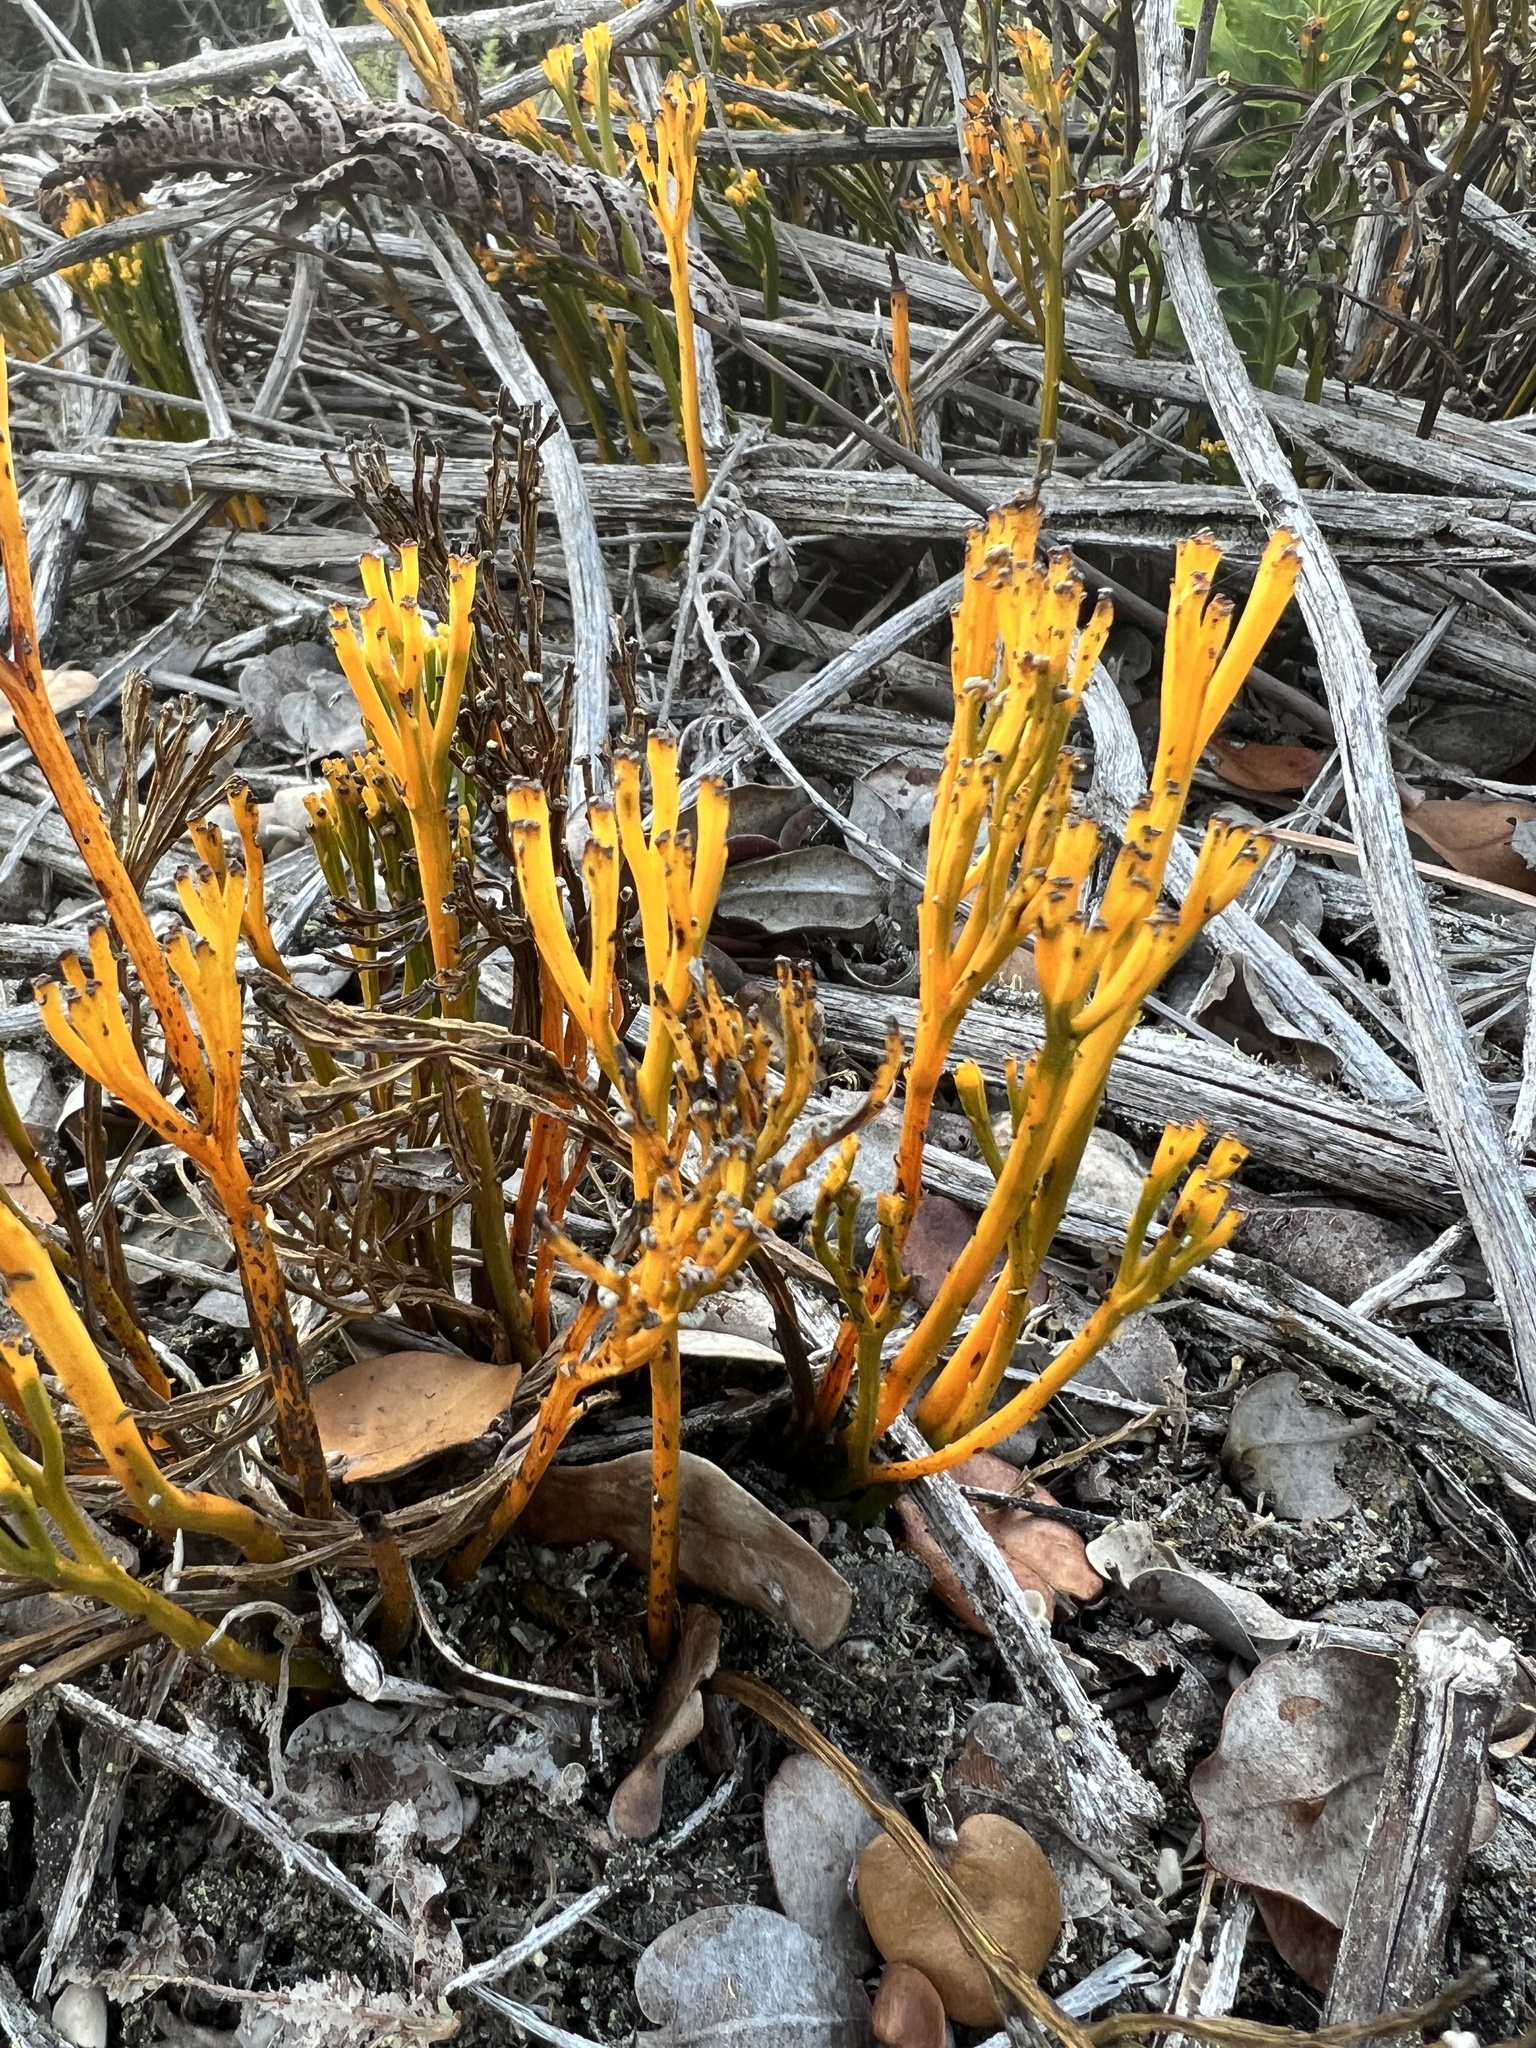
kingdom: Plantae
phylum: Tracheophyta
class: Polypodiopsida
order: Psilotales
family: Psilotaceae
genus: Psilotum
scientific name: Psilotum nudum
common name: Skeleton fork fern
